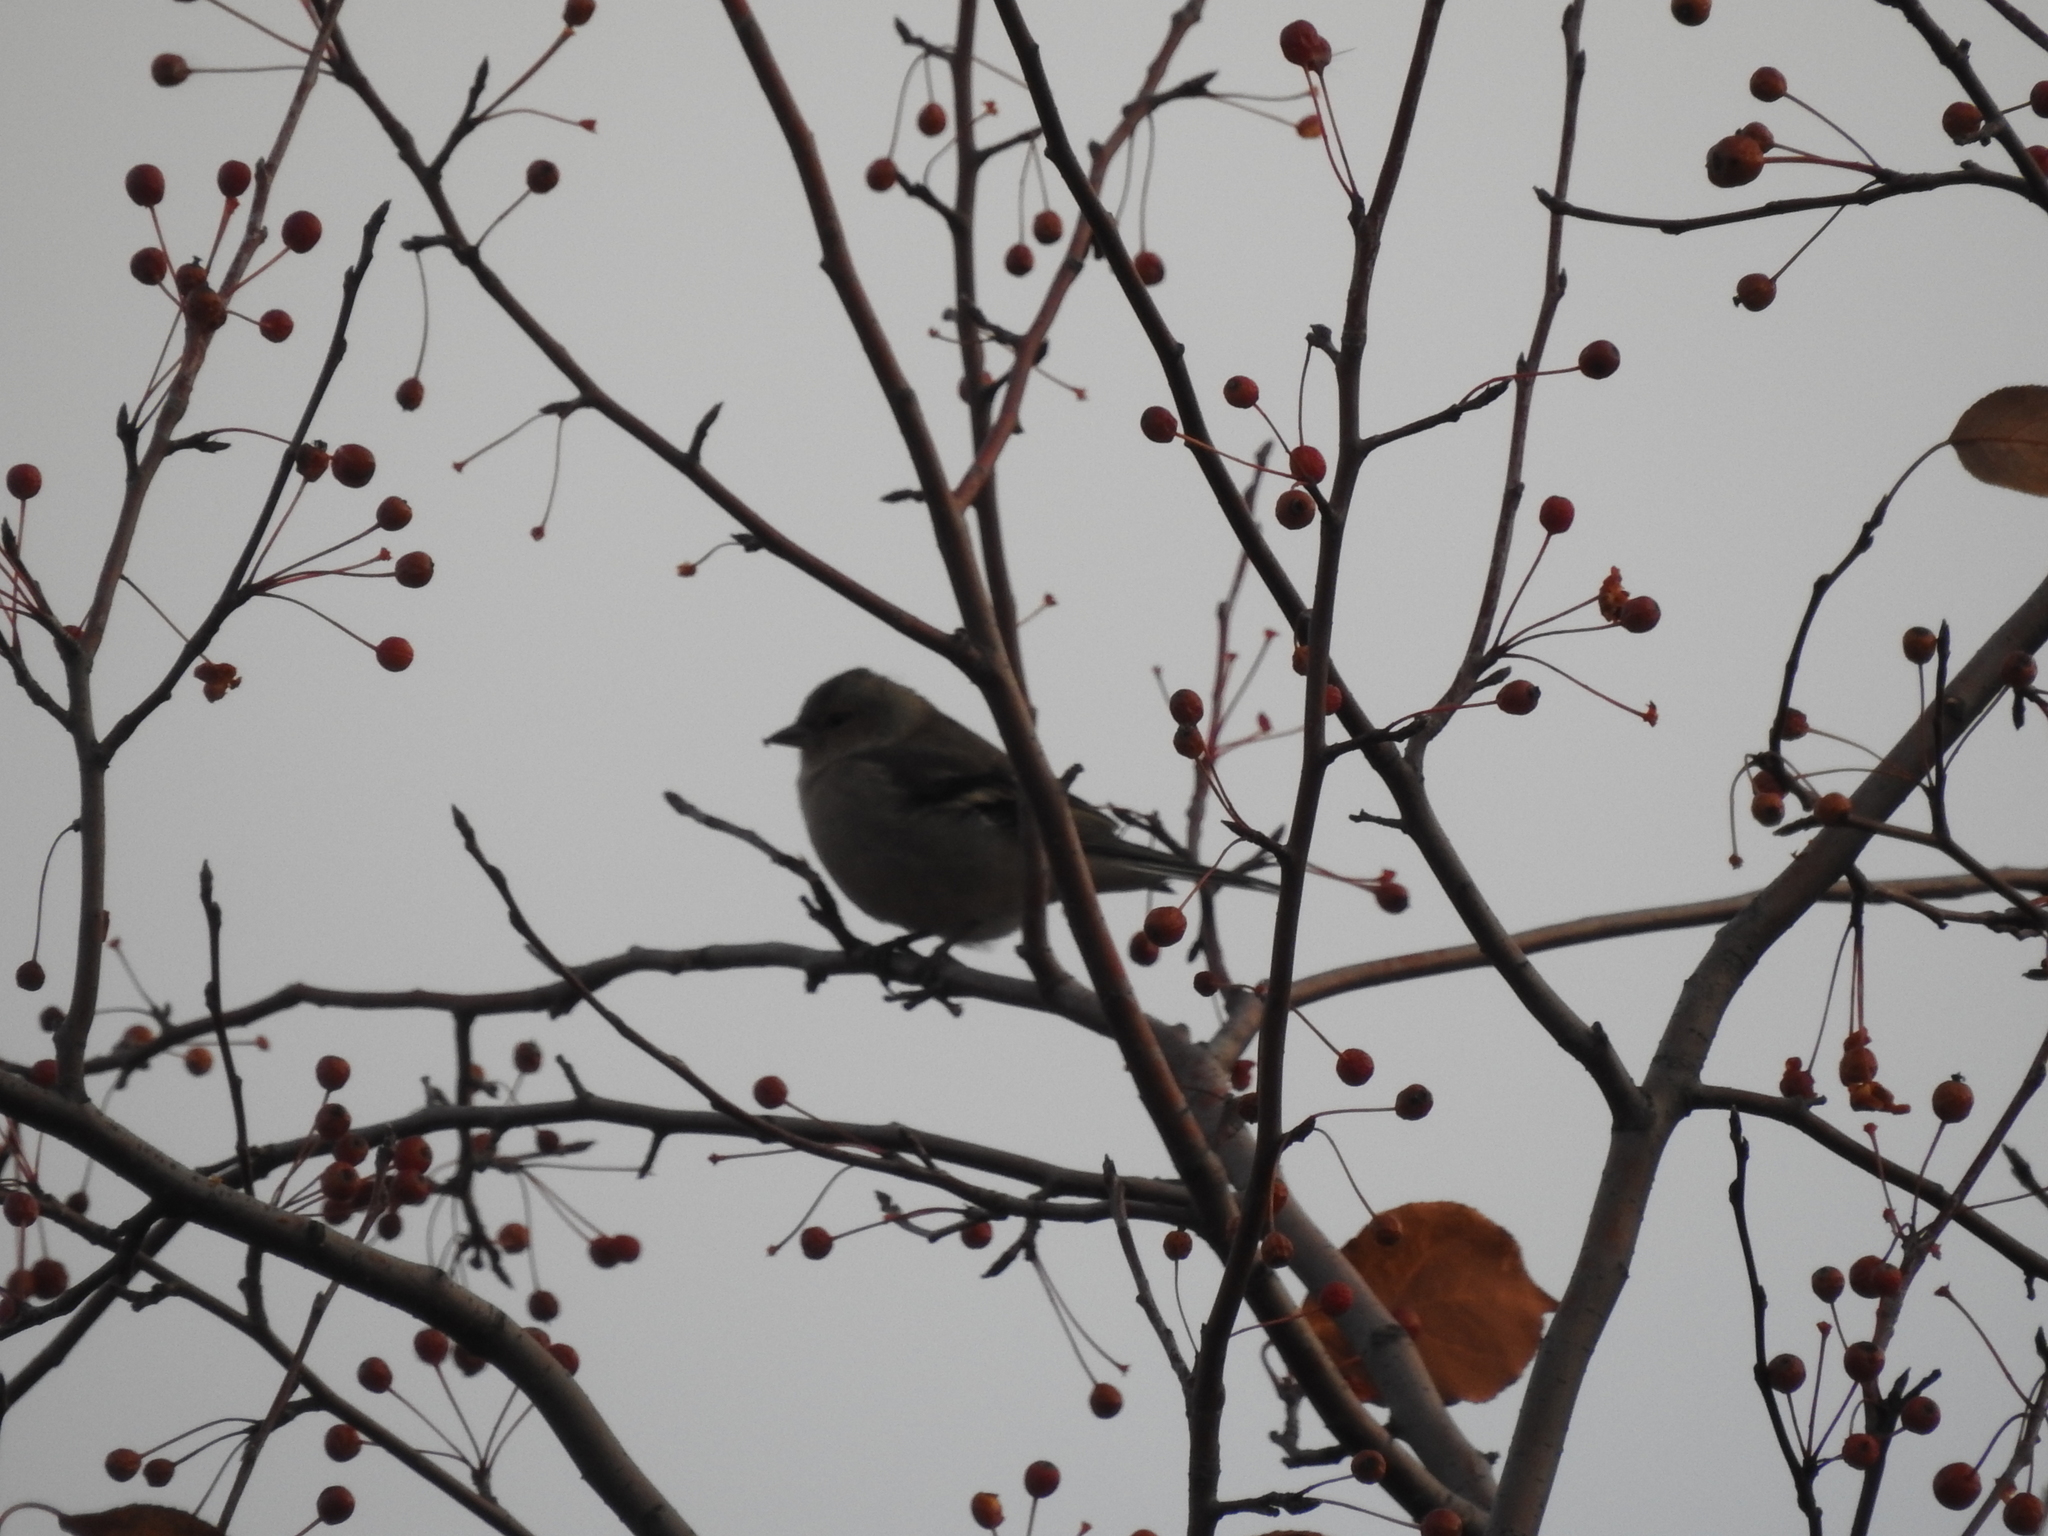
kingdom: Animalia
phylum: Chordata
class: Aves
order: Passeriformes
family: Fringillidae
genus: Fringilla
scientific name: Fringilla coelebs
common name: Common chaffinch
